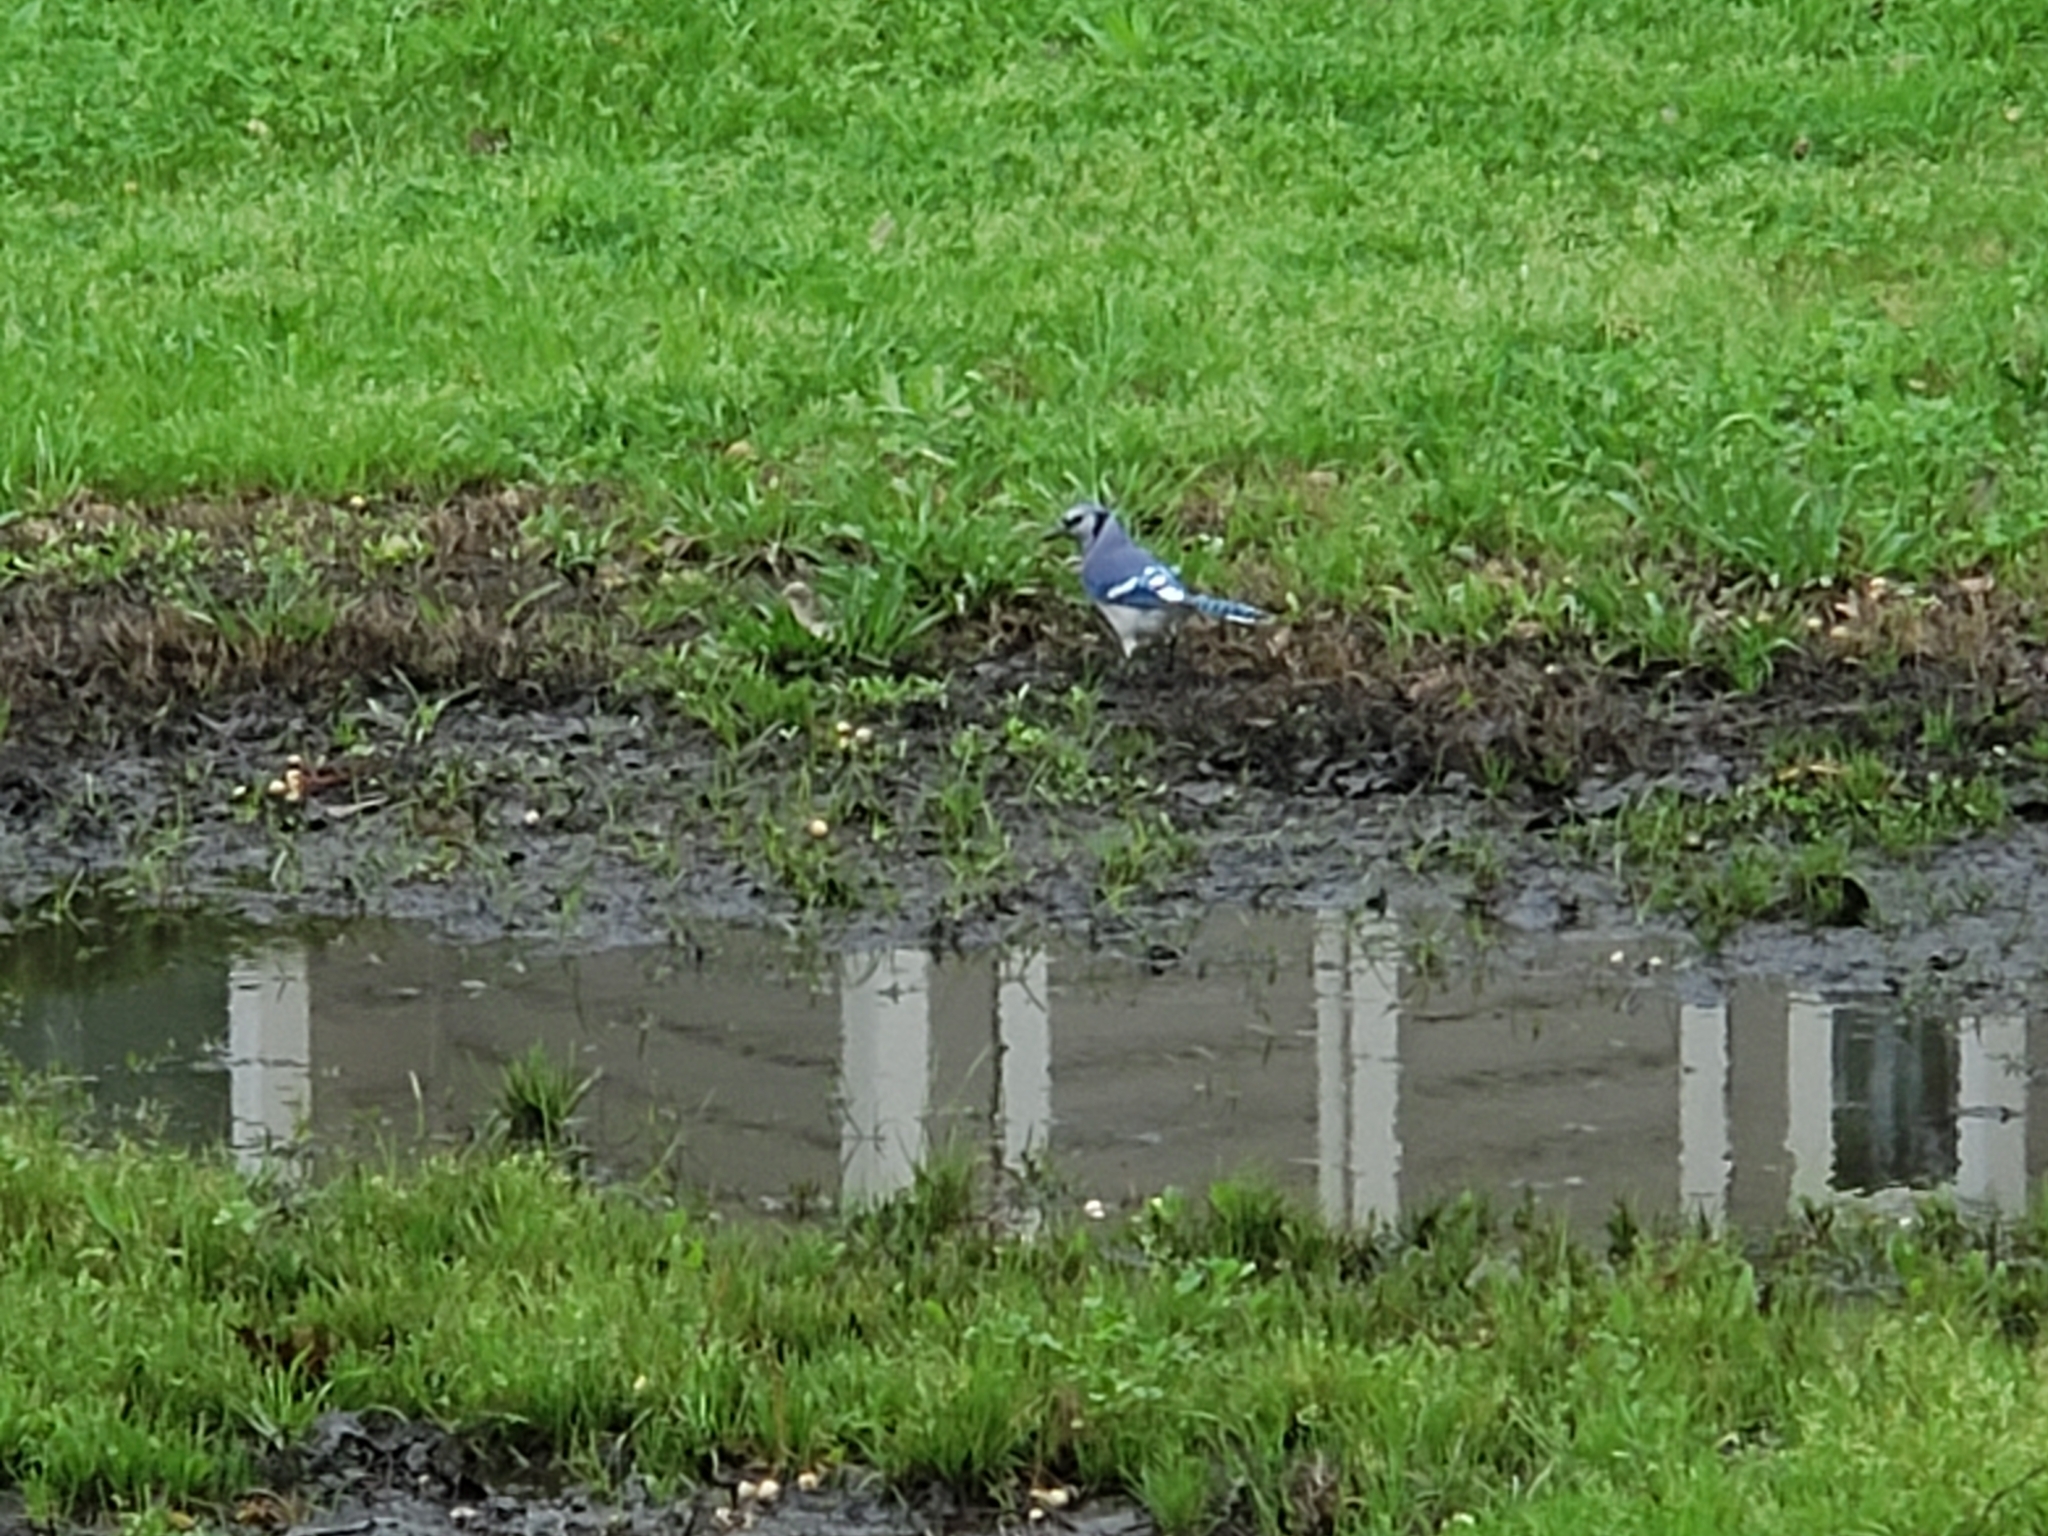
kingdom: Animalia
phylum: Chordata
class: Aves
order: Passeriformes
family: Corvidae
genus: Cyanocitta
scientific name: Cyanocitta cristata
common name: Blue jay
